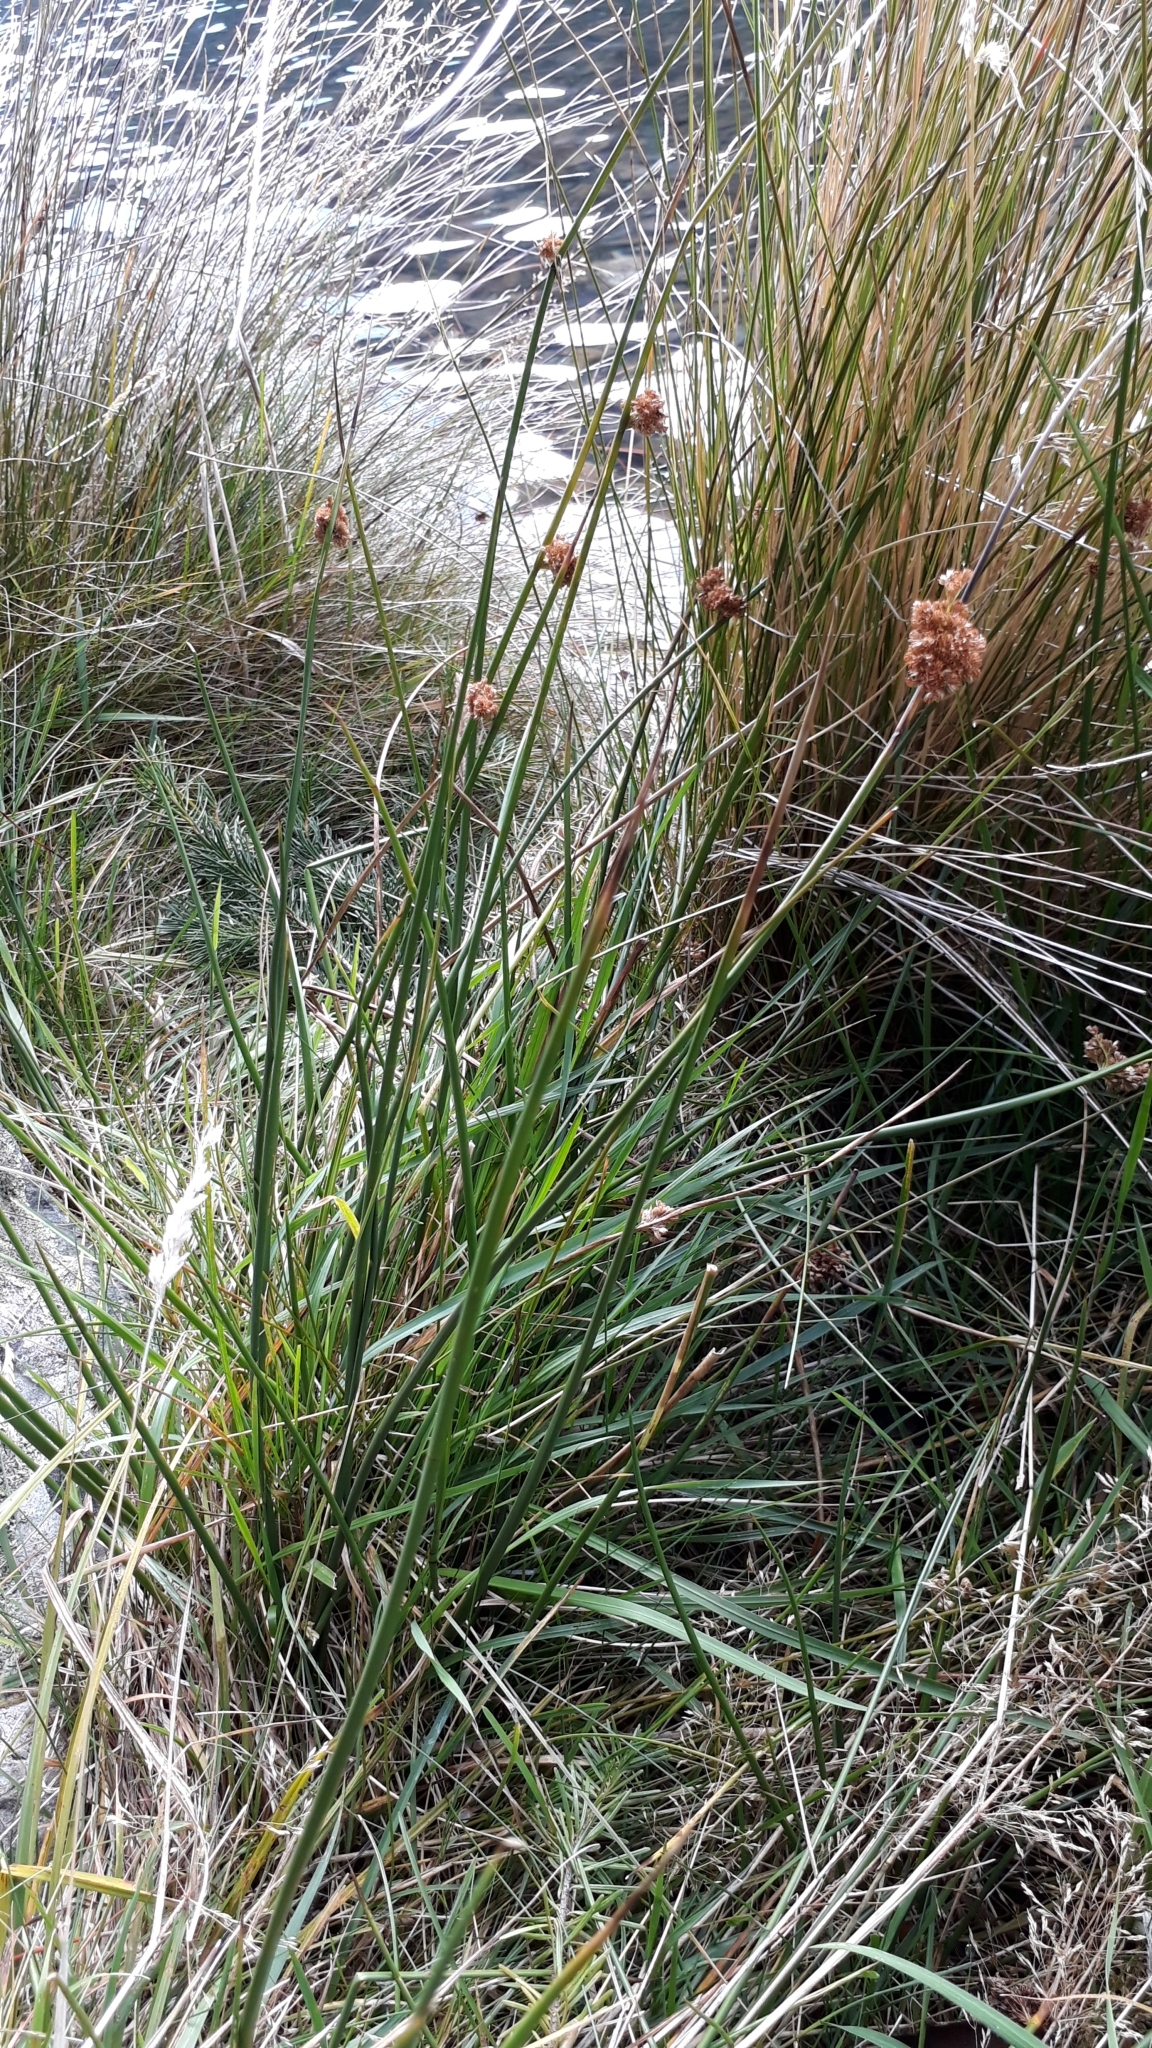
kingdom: Plantae
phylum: Tracheophyta
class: Liliopsida
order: Poales
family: Cyperaceae
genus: Ficinia
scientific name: Ficinia nodosa
